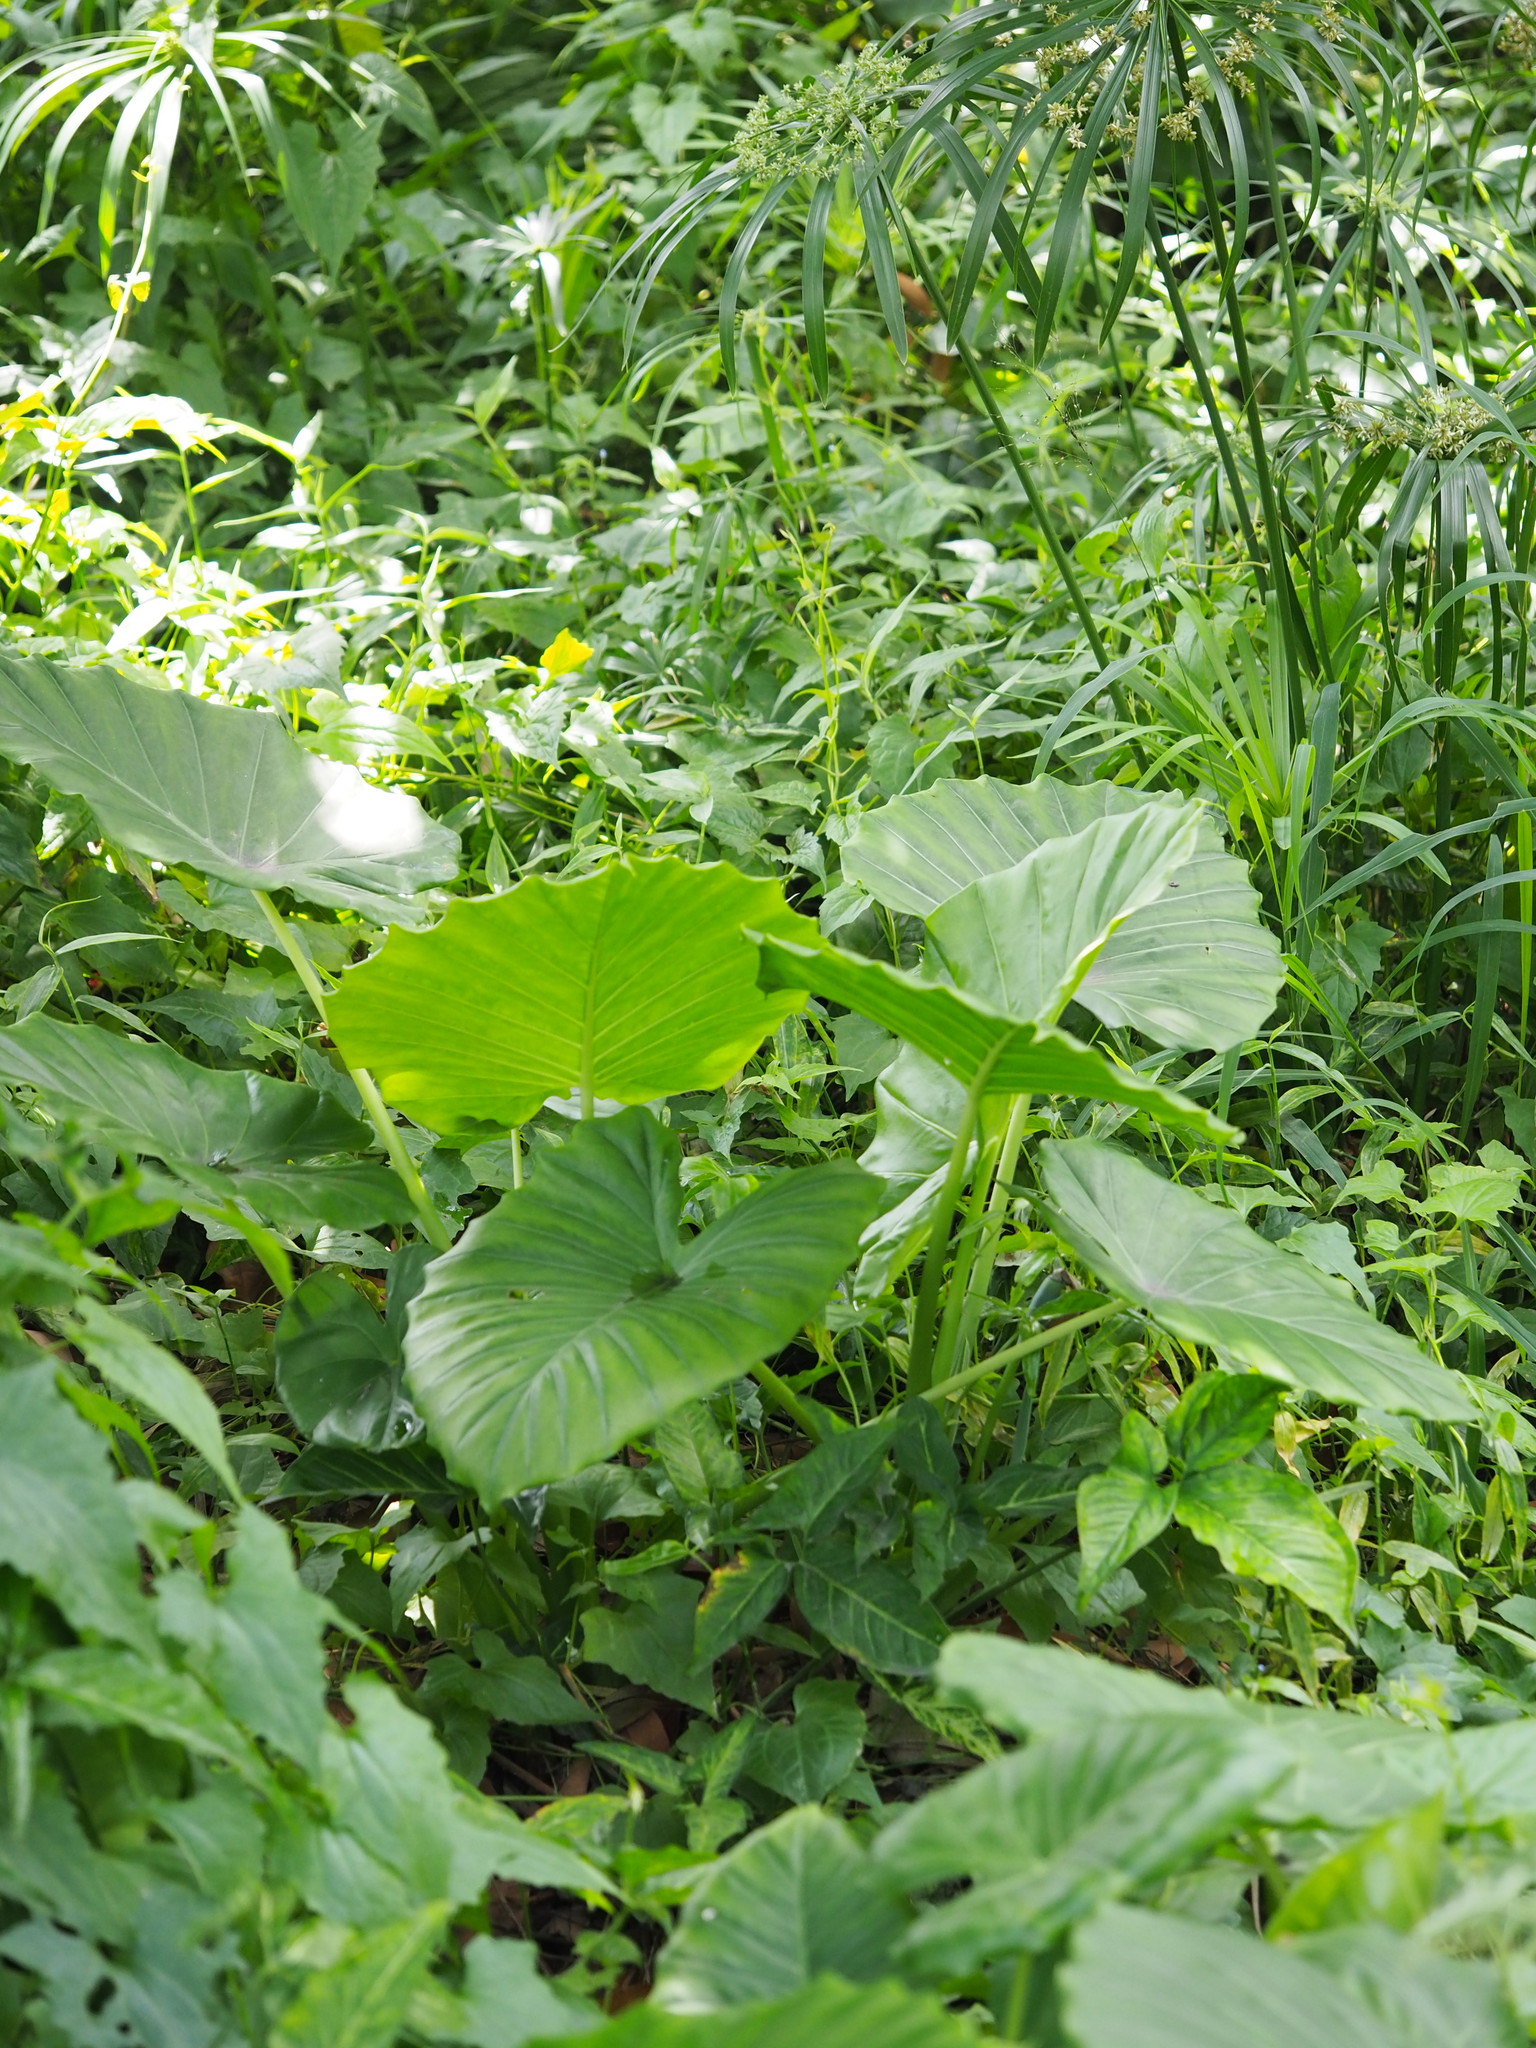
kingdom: Plantae
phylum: Tracheophyta
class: Liliopsida
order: Alismatales
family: Araceae
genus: Alocasia
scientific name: Alocasia odora
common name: Asian taro
